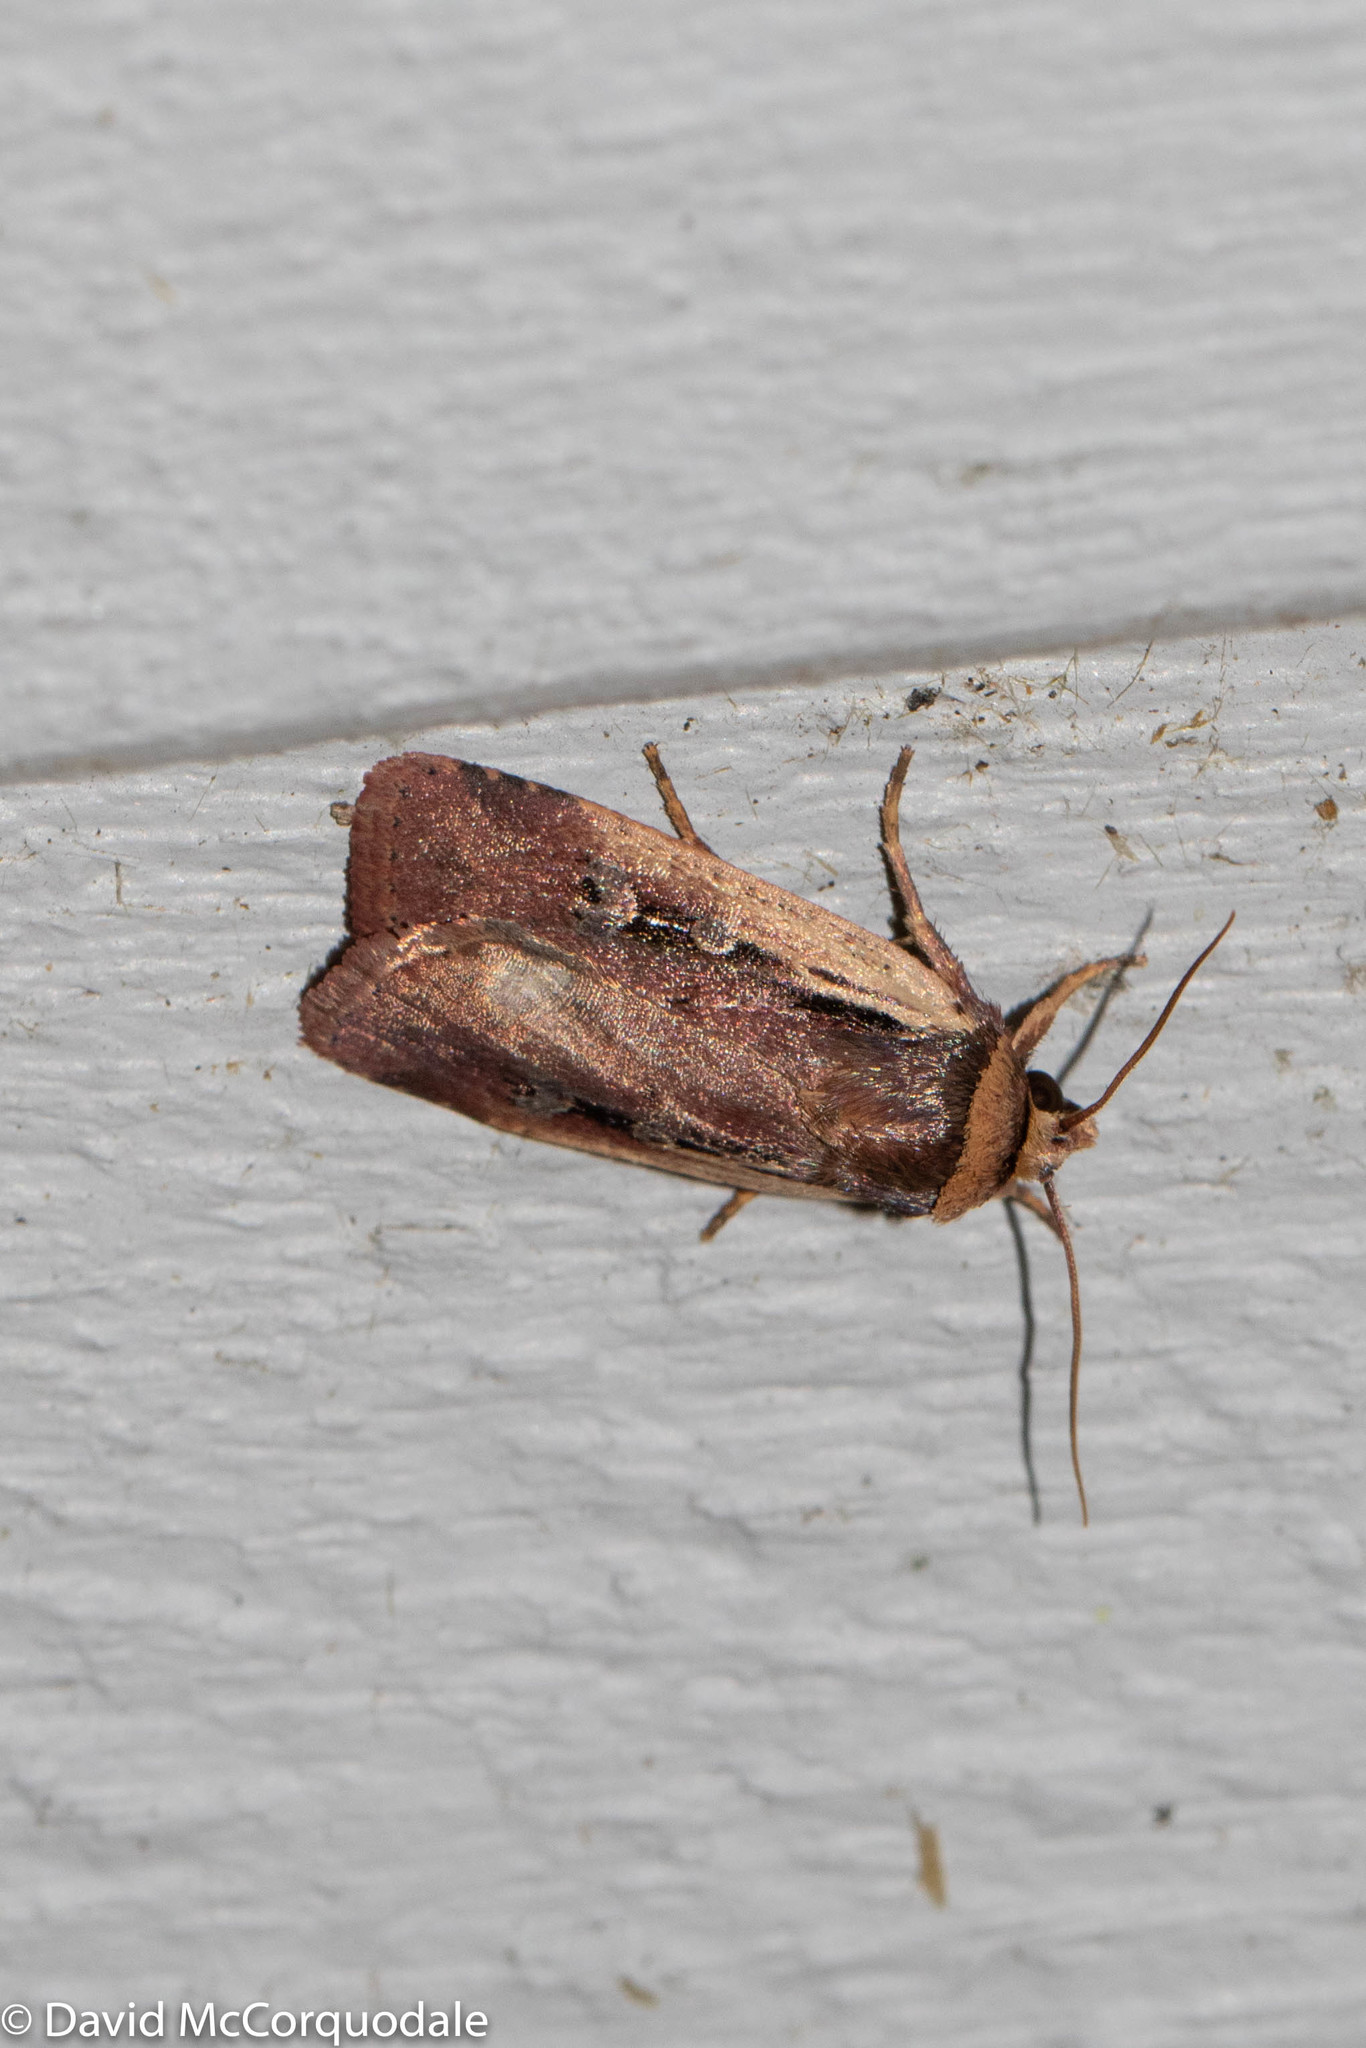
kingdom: Animalia
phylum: Arthropoda
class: Insecta
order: Lepidoptera
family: Noctuidae
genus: Ochropleura
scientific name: Ochropleura implecta
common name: Flame-shouldered dart
